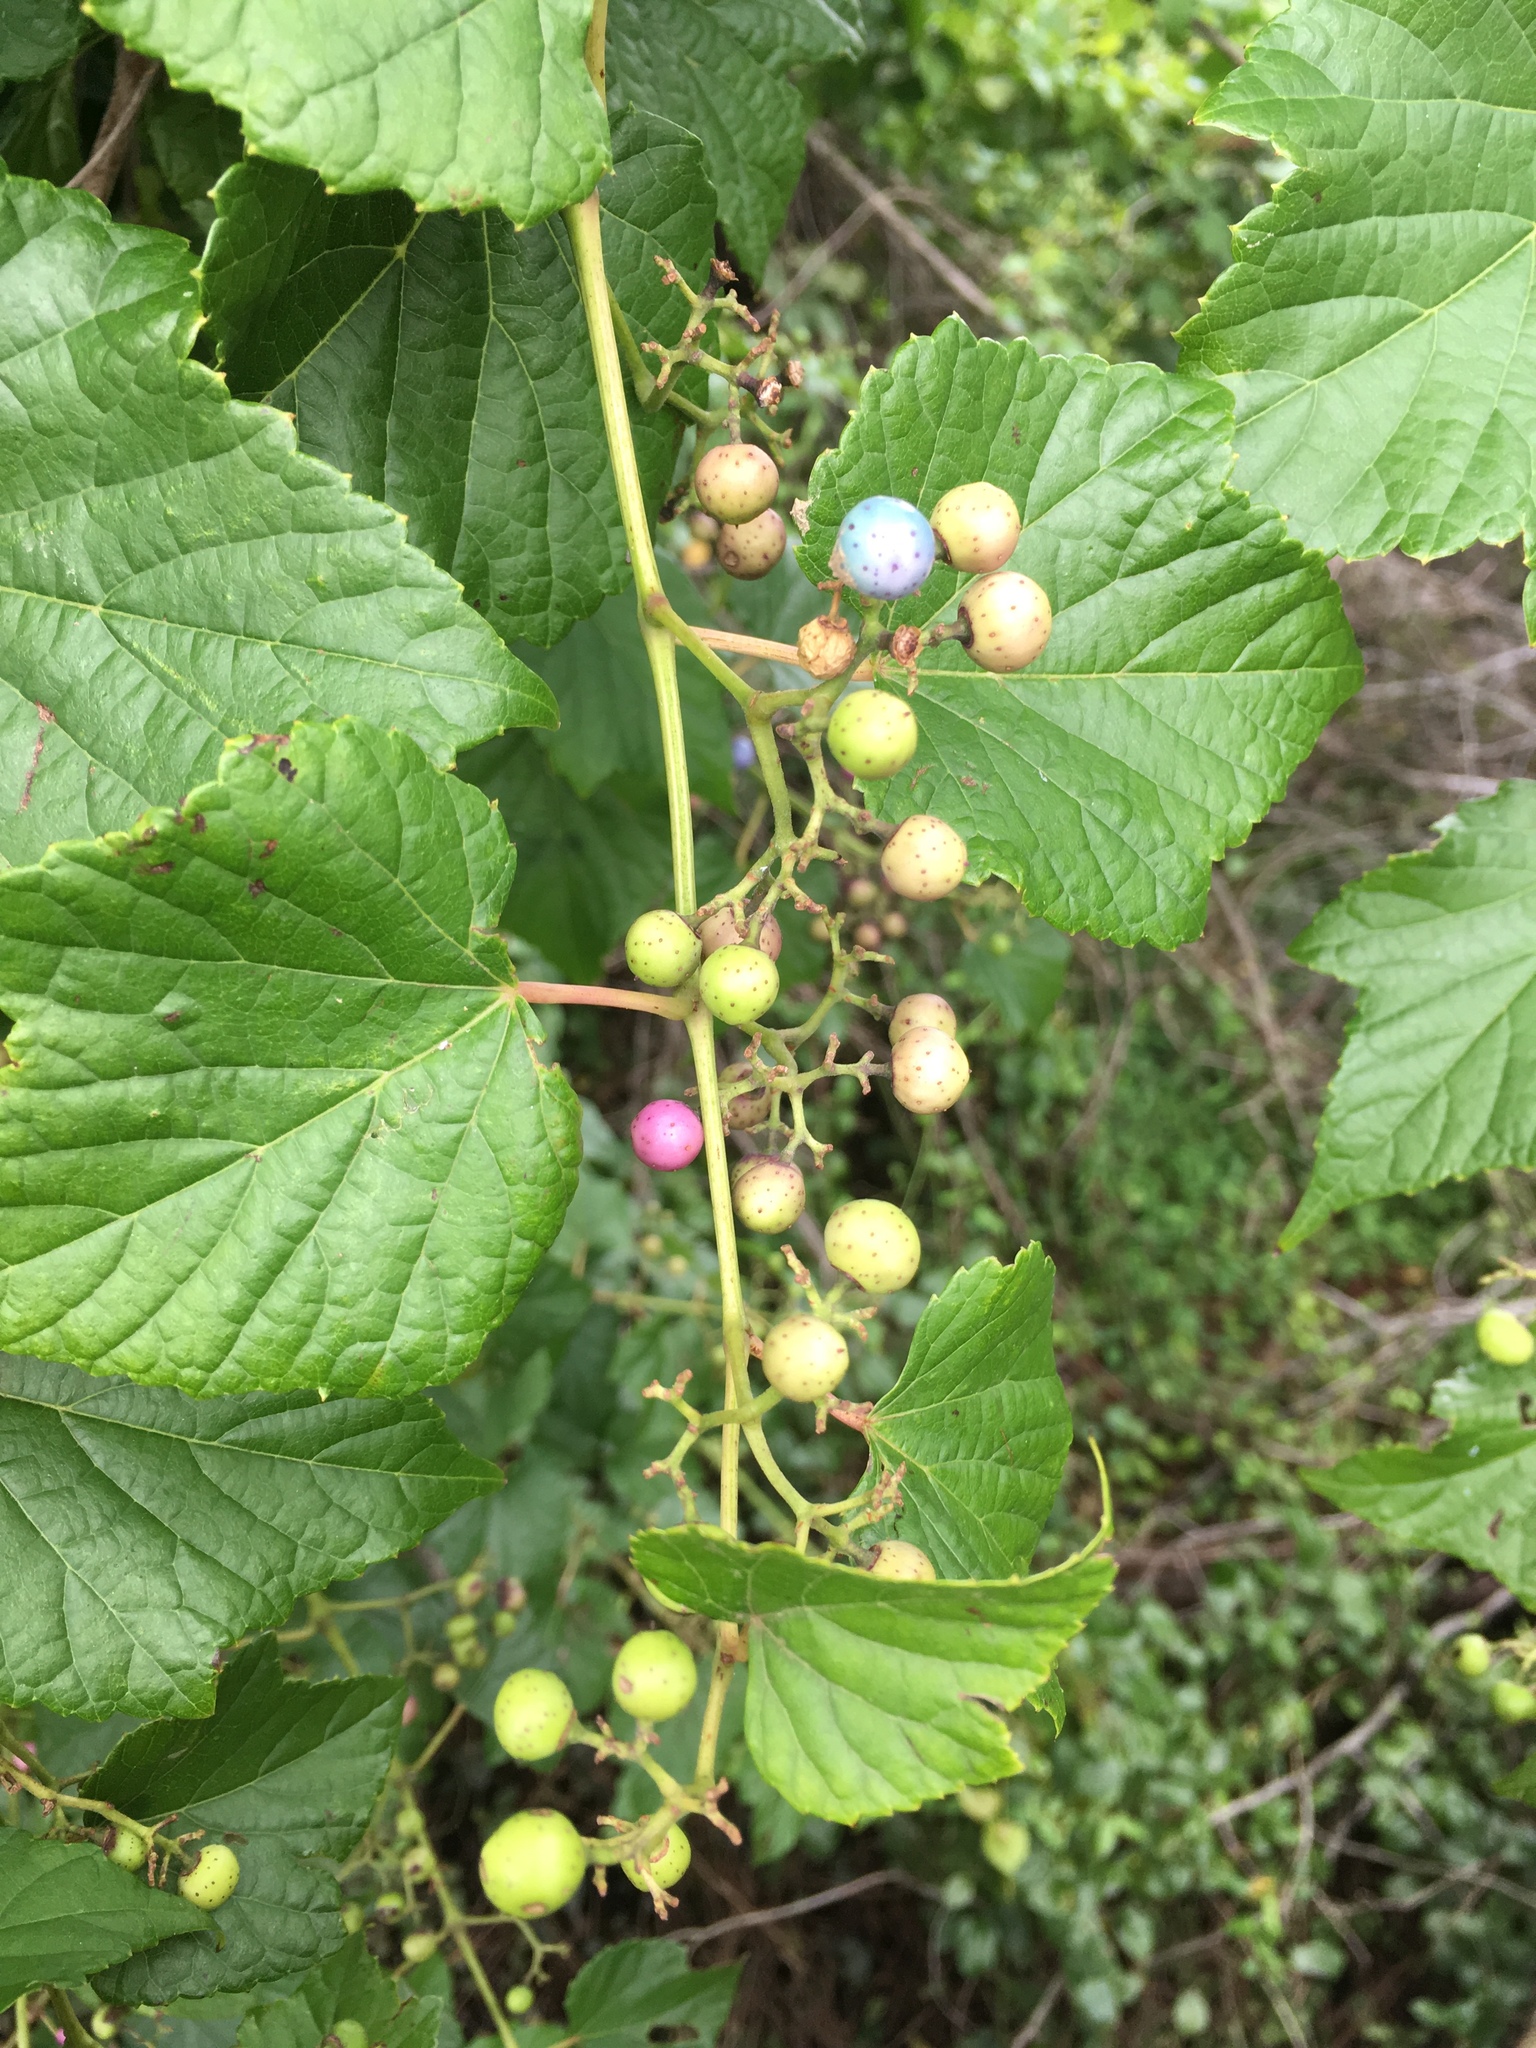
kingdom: Plantae
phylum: Tracheophyta
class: Magnoliopsida
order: Vitales
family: Vitaceae
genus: Ampelopsis
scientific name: Ampelopsis glandulosa
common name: Amur peppervine
